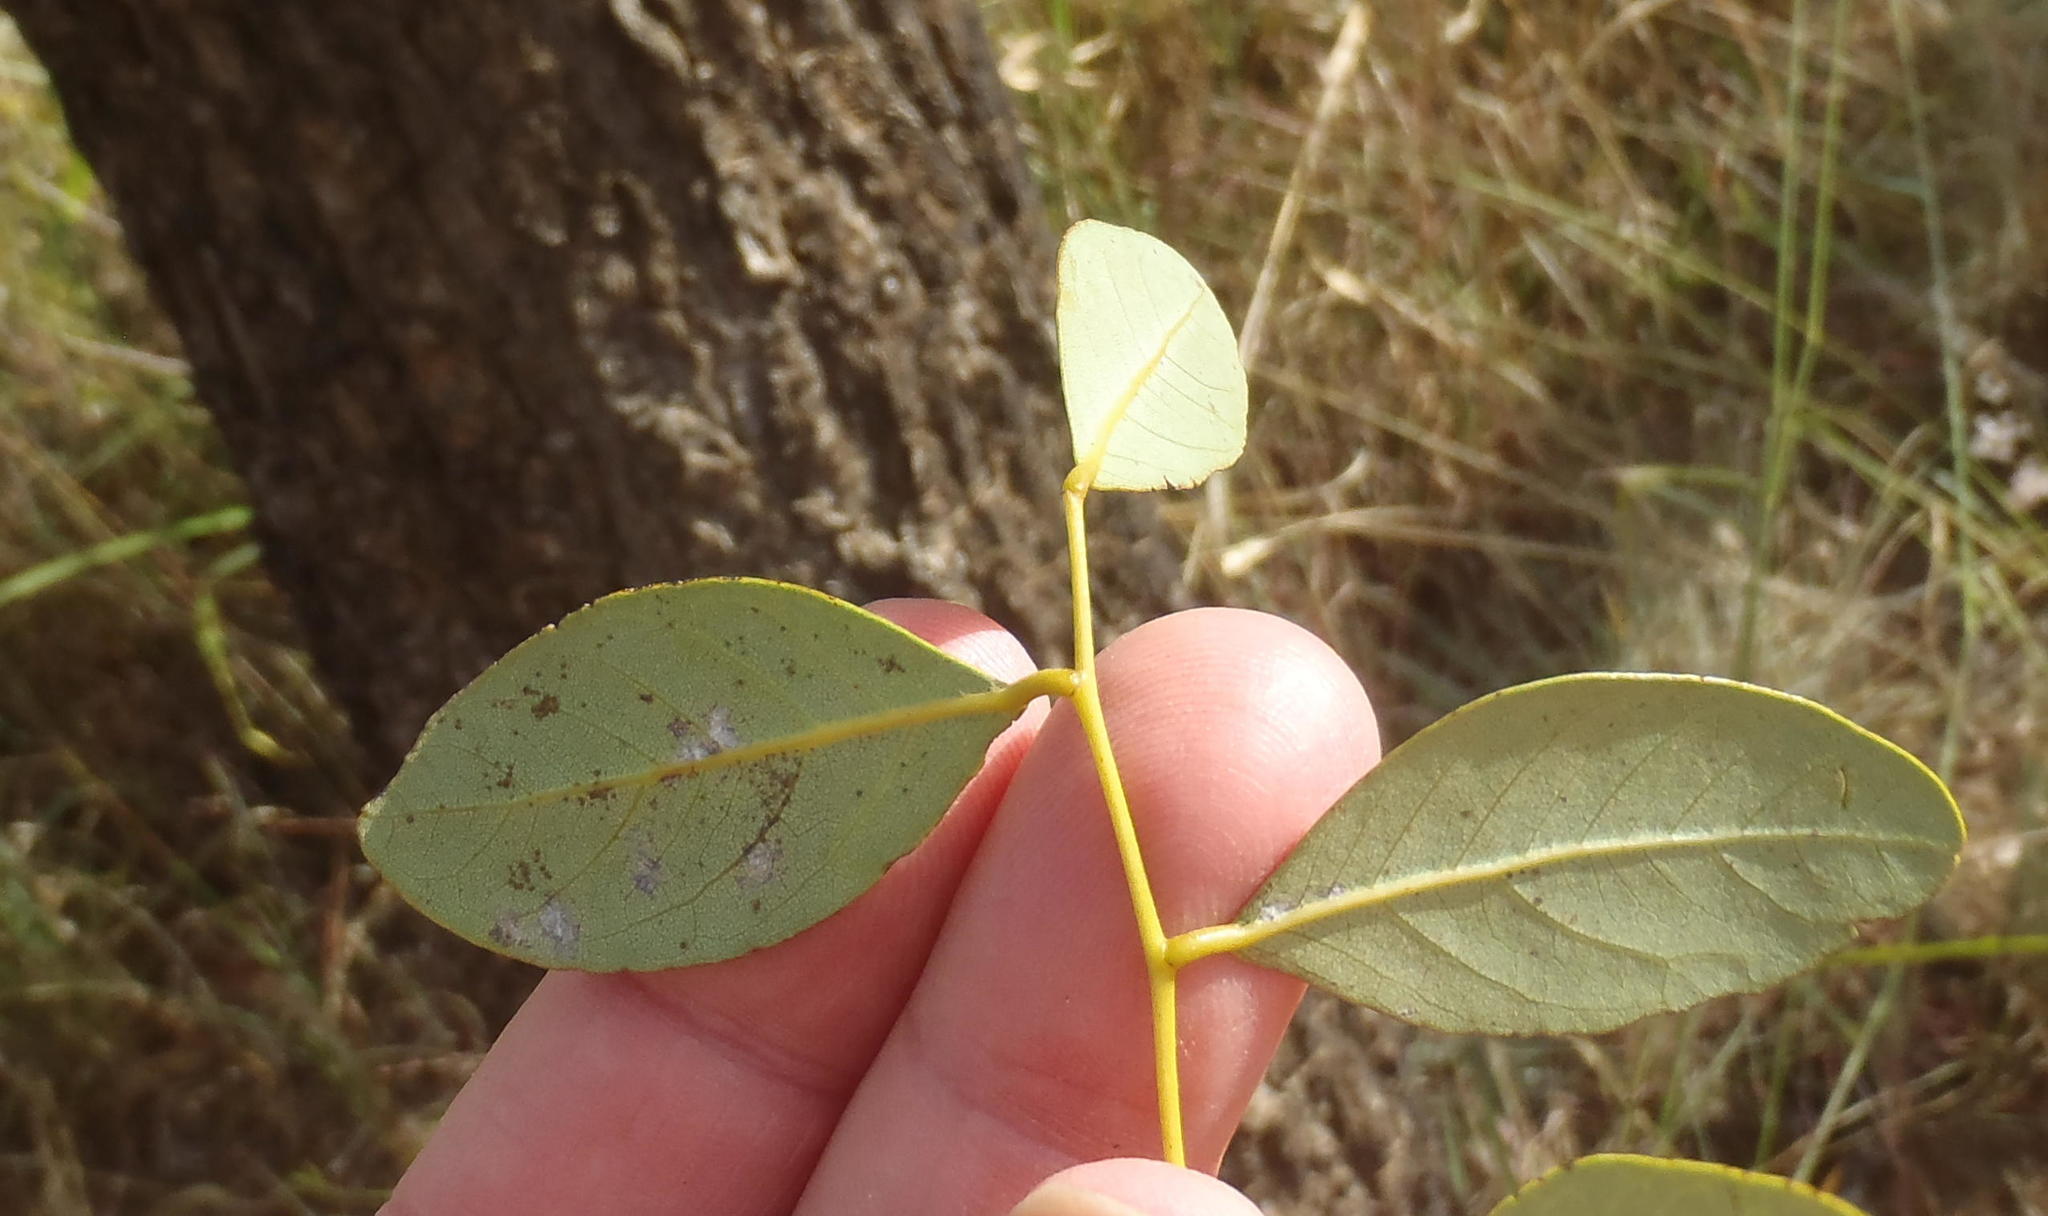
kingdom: Plantae
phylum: Tracheophyta
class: Magnoliopsida
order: Fabales
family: Fabaceae
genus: Burkea
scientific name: Burkea africana
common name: Mkalati tree
